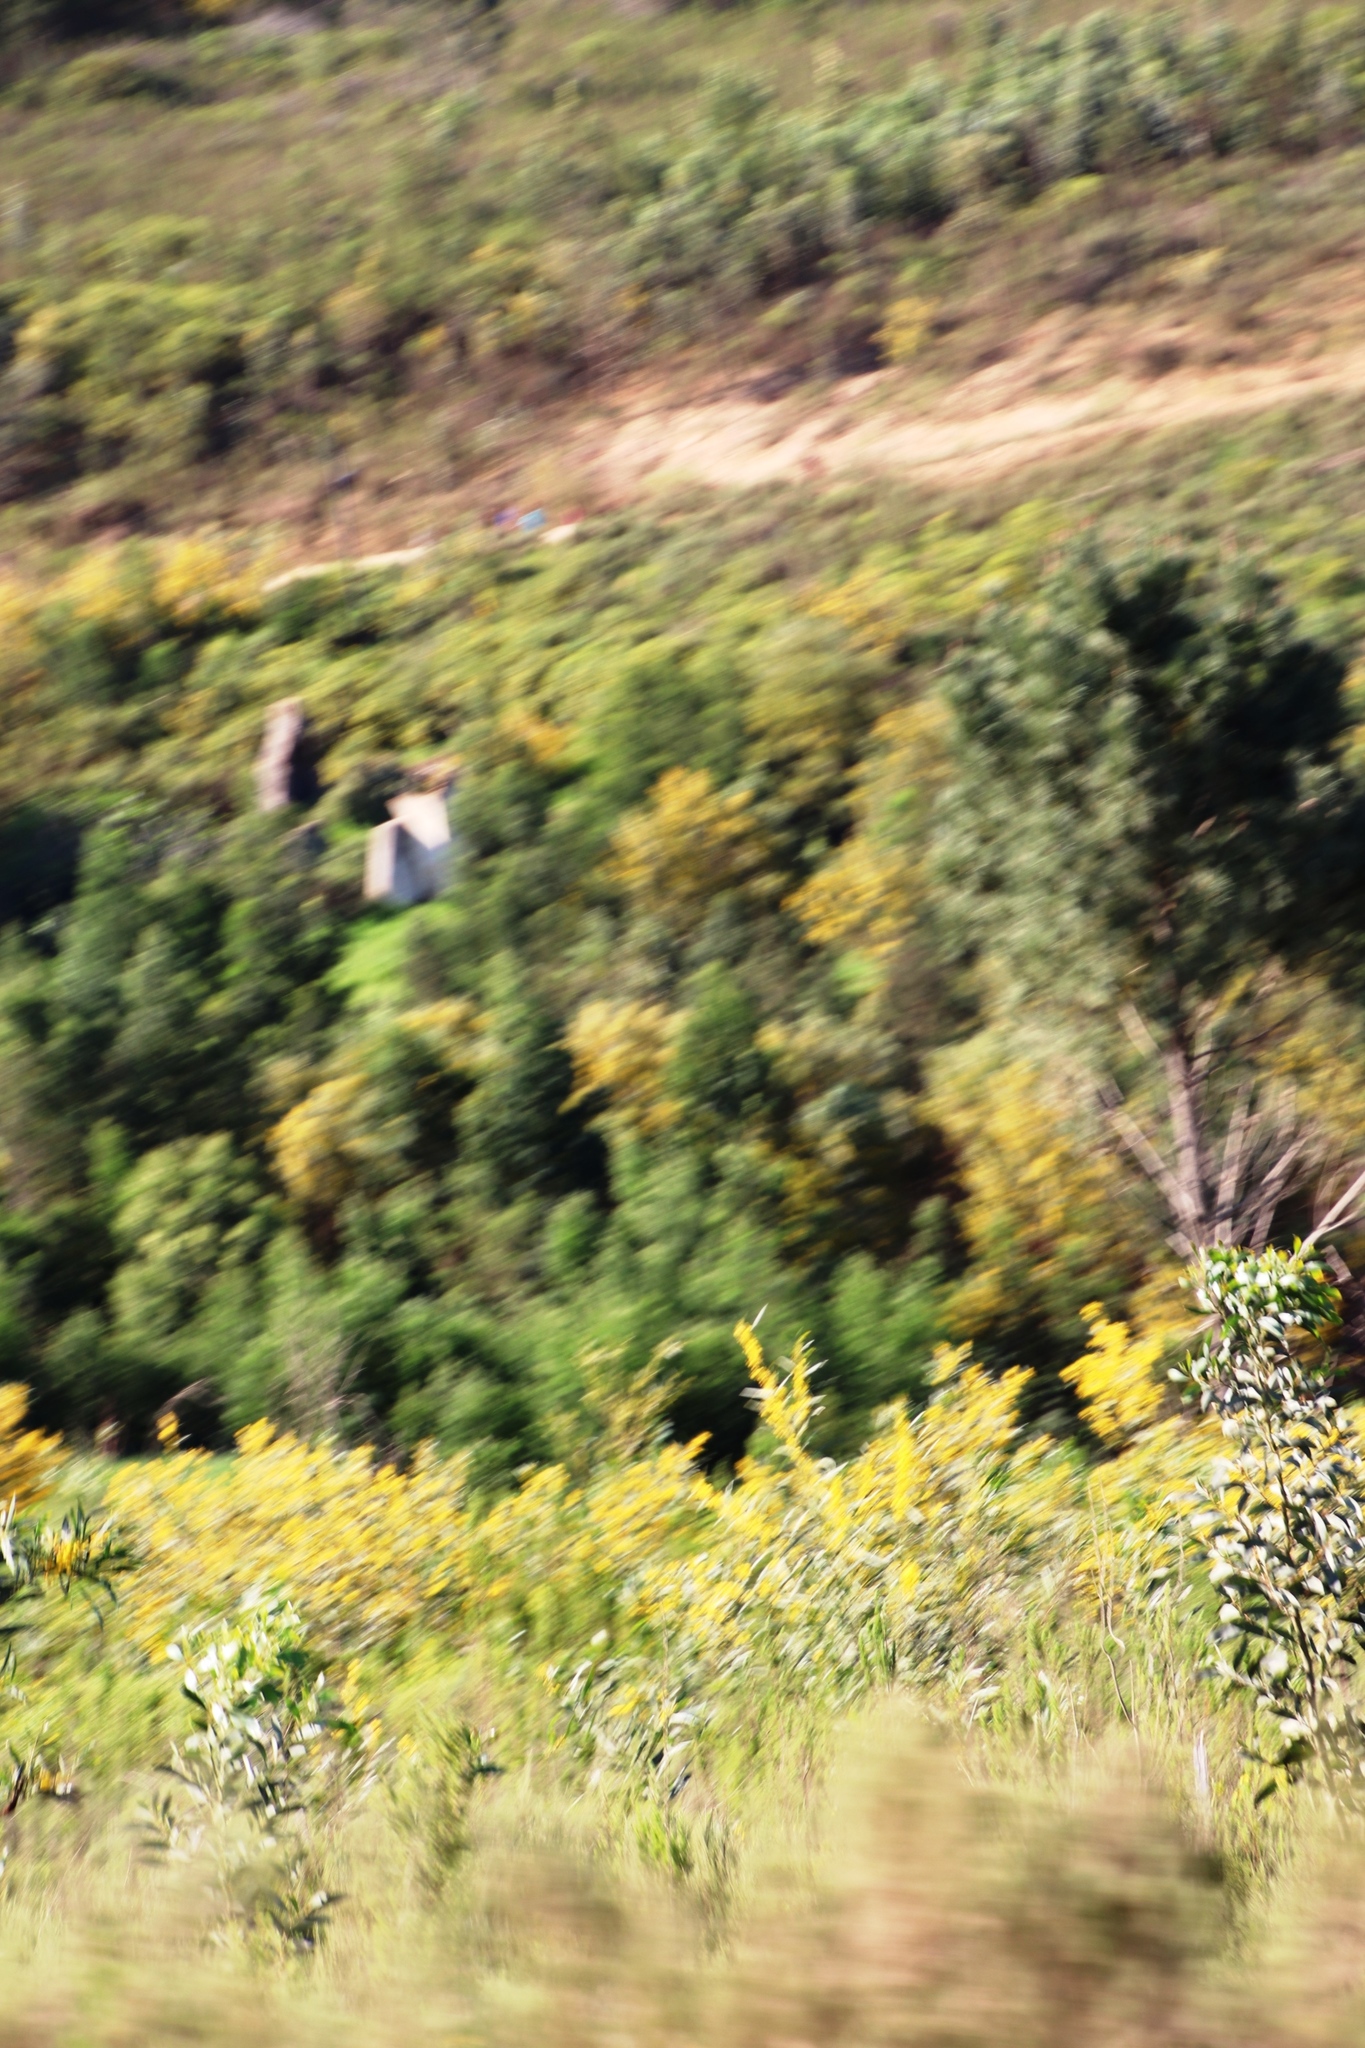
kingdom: Plantae
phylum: Tracheophyta
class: Magnoliopsida
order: Fabales
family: Fabaceae
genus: Acacia
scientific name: Acacia pycnantha
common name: Golden wattle
